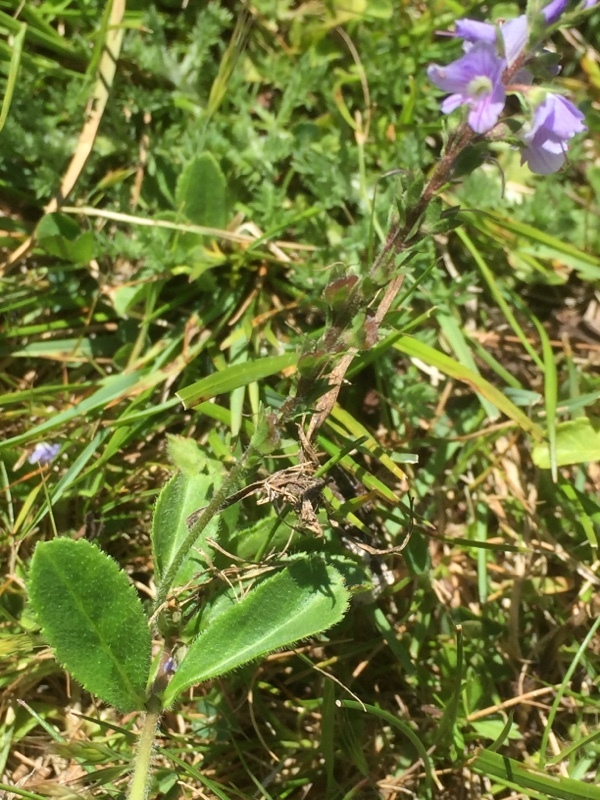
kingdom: Plantae
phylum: Tracheophyta
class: Magnoliopsida
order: Lamiales
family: Plantaginaceae
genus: Veronica
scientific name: Veronica officinalis
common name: Common speedwell
